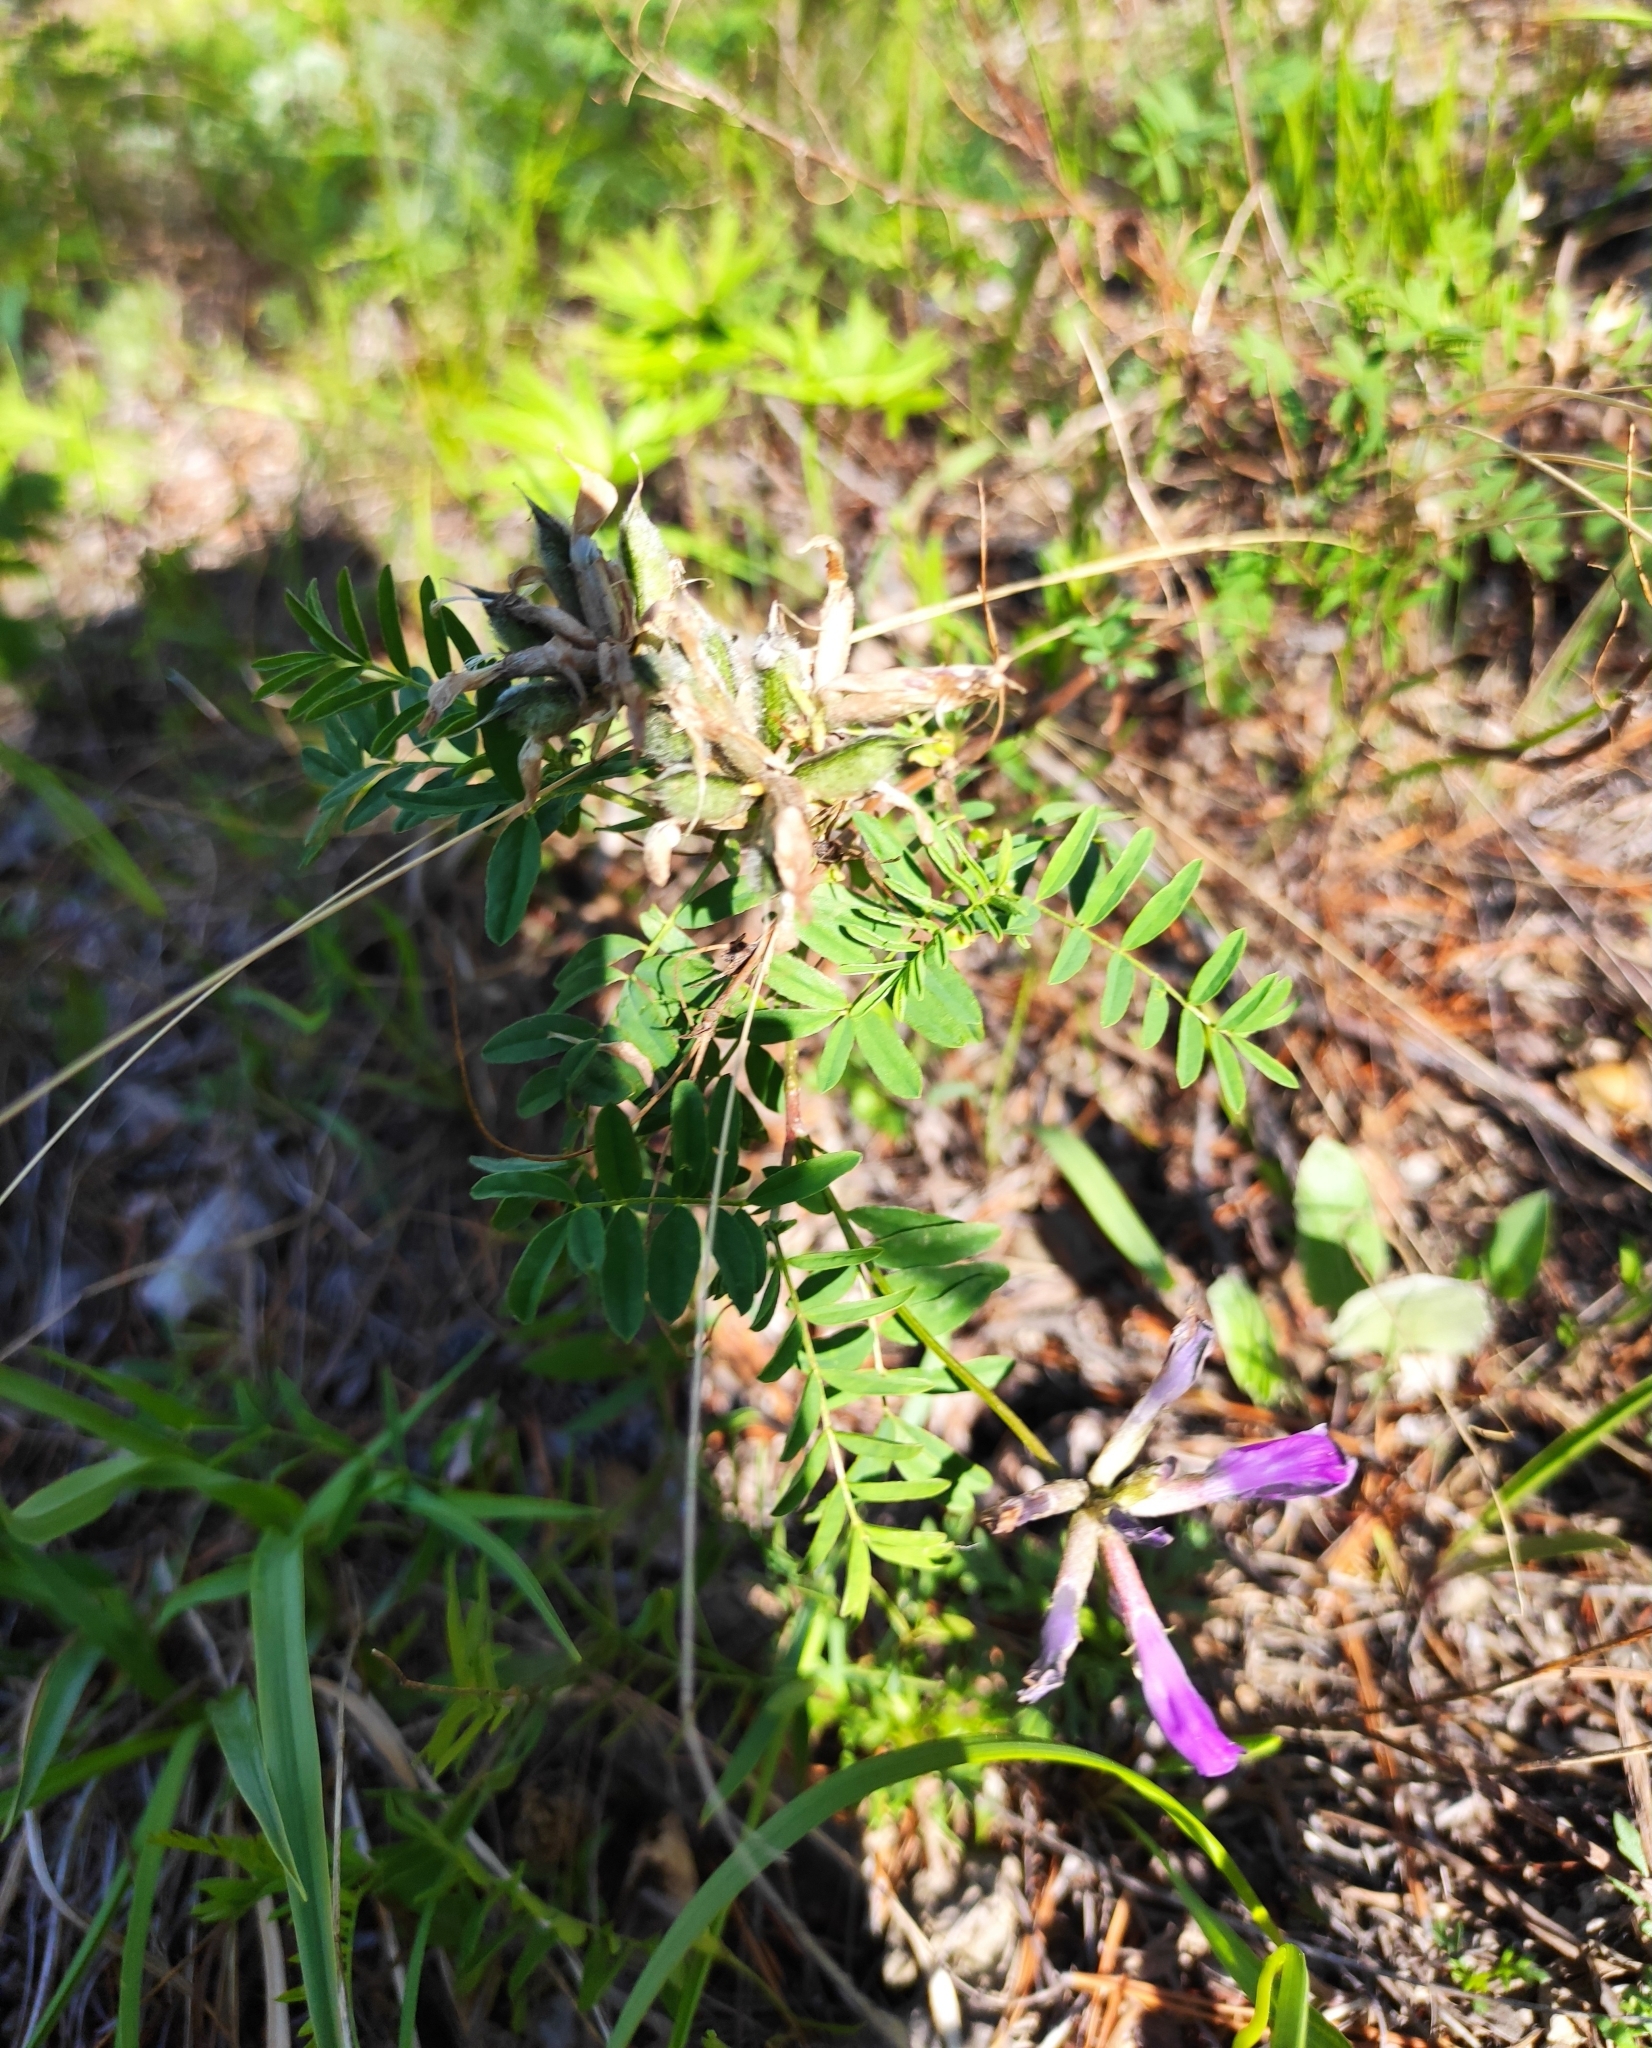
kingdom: Plantae
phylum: Tracheophyta
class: Magnoliopsida
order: Fabales
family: Fabaceae
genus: Astragalus
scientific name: Astragalus syriacus
